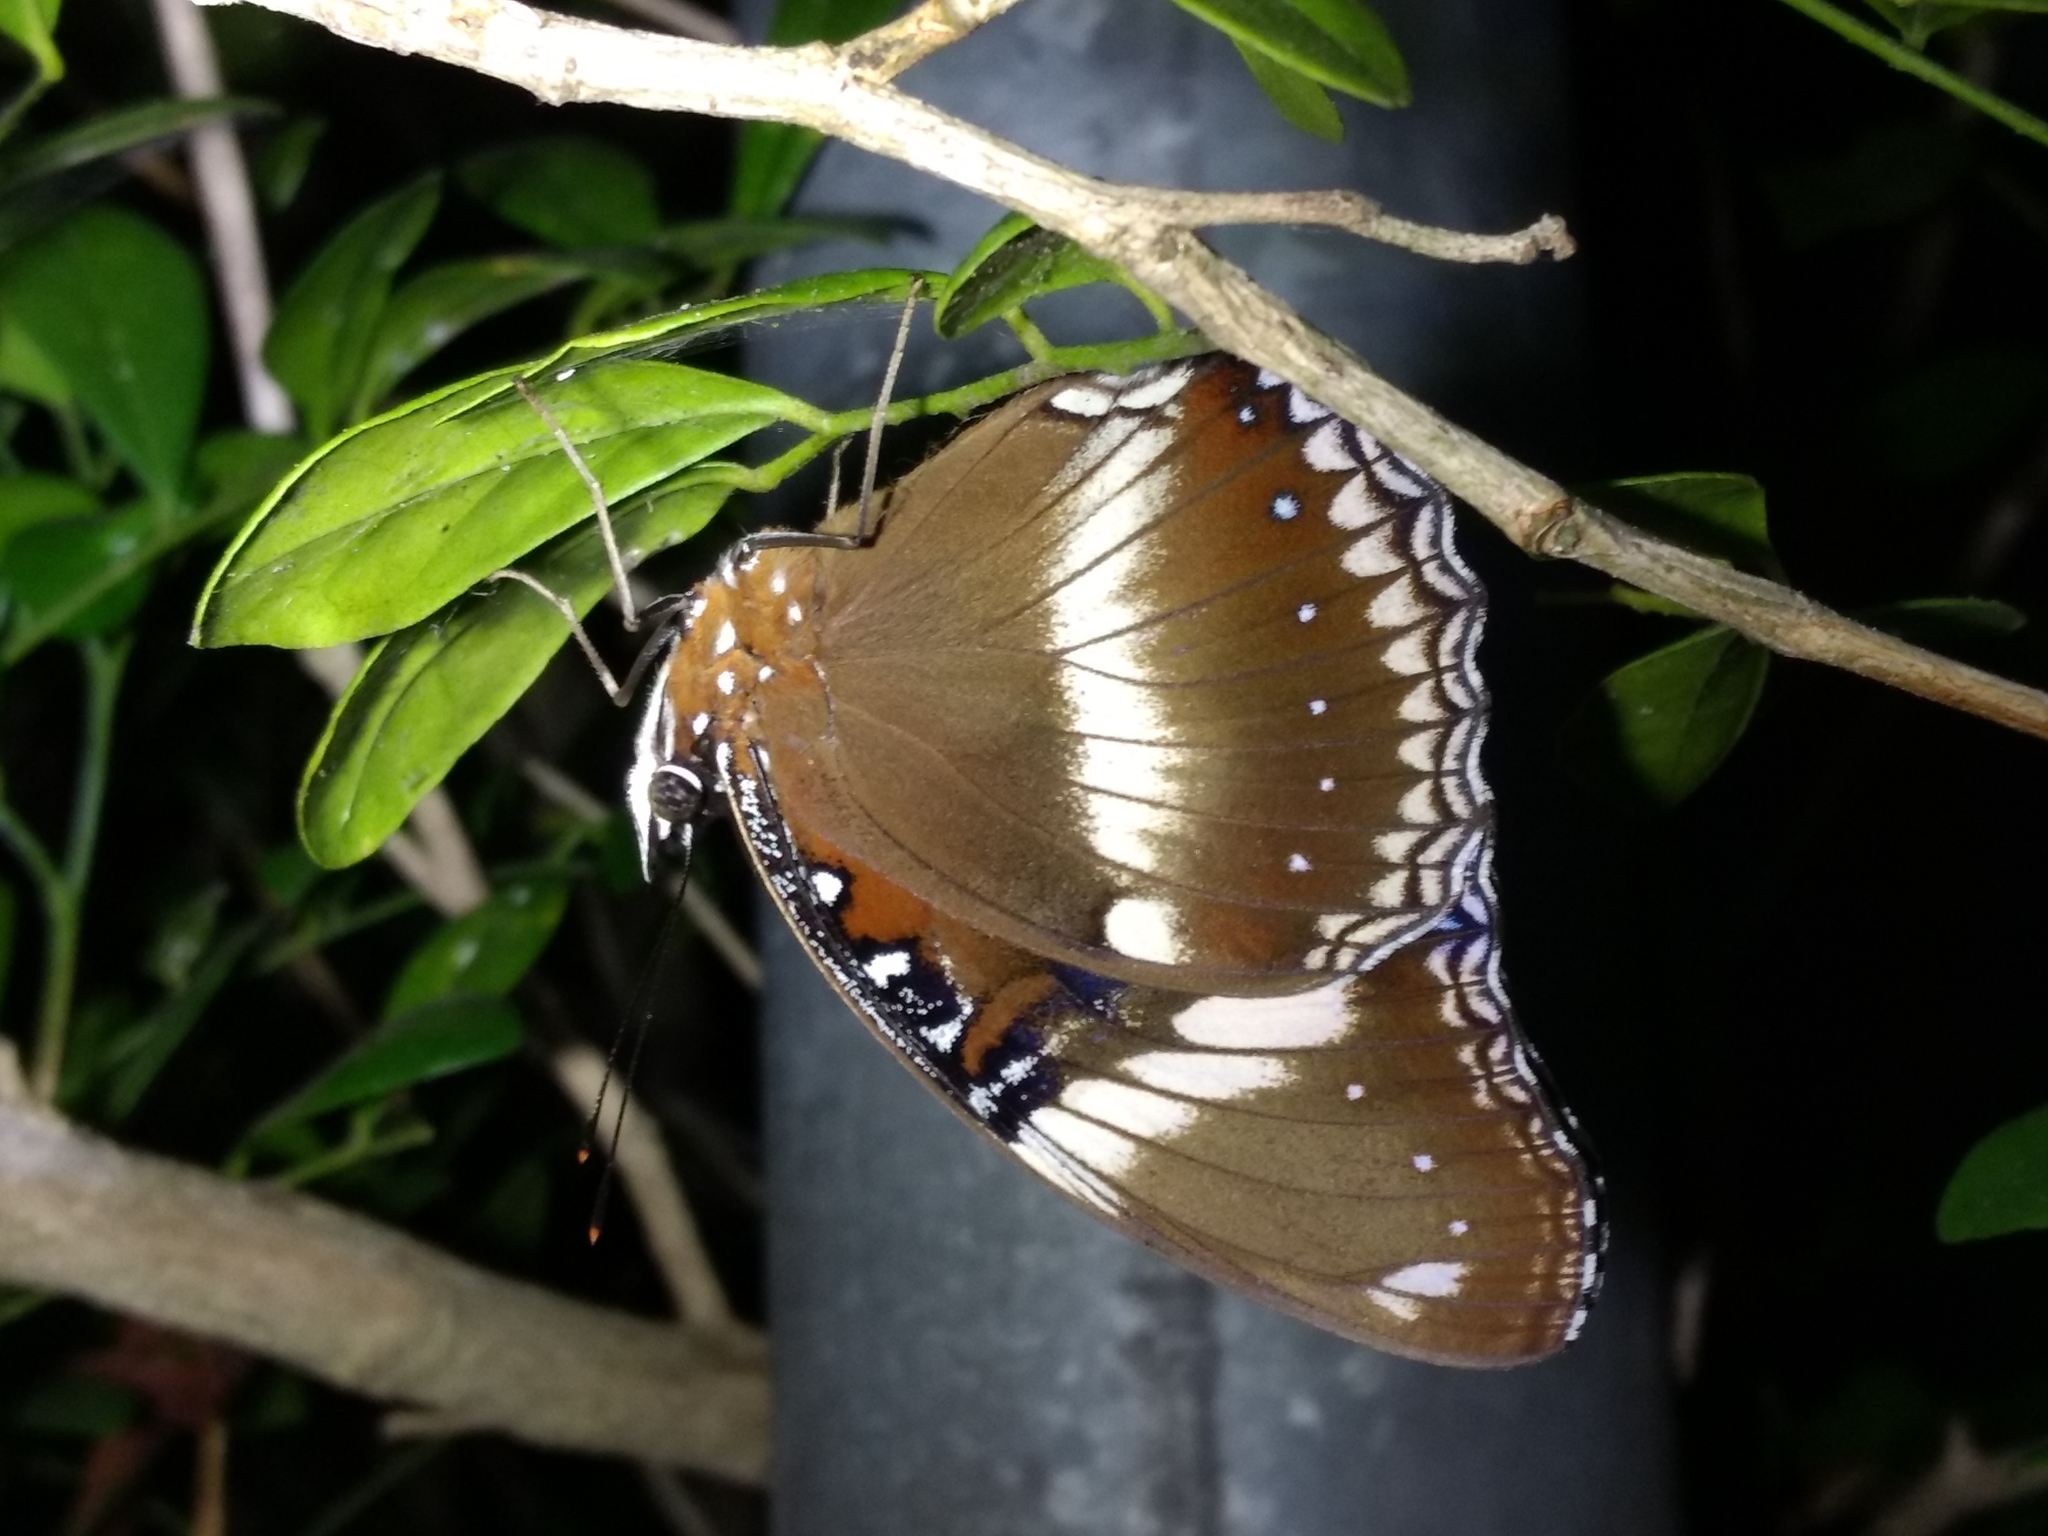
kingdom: Animalia
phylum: Arthropoda
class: Insecta
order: Lepidoptera
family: Nymphalidae
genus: Hypolimnas
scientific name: Hypolimnas bolina
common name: Great eggfly
